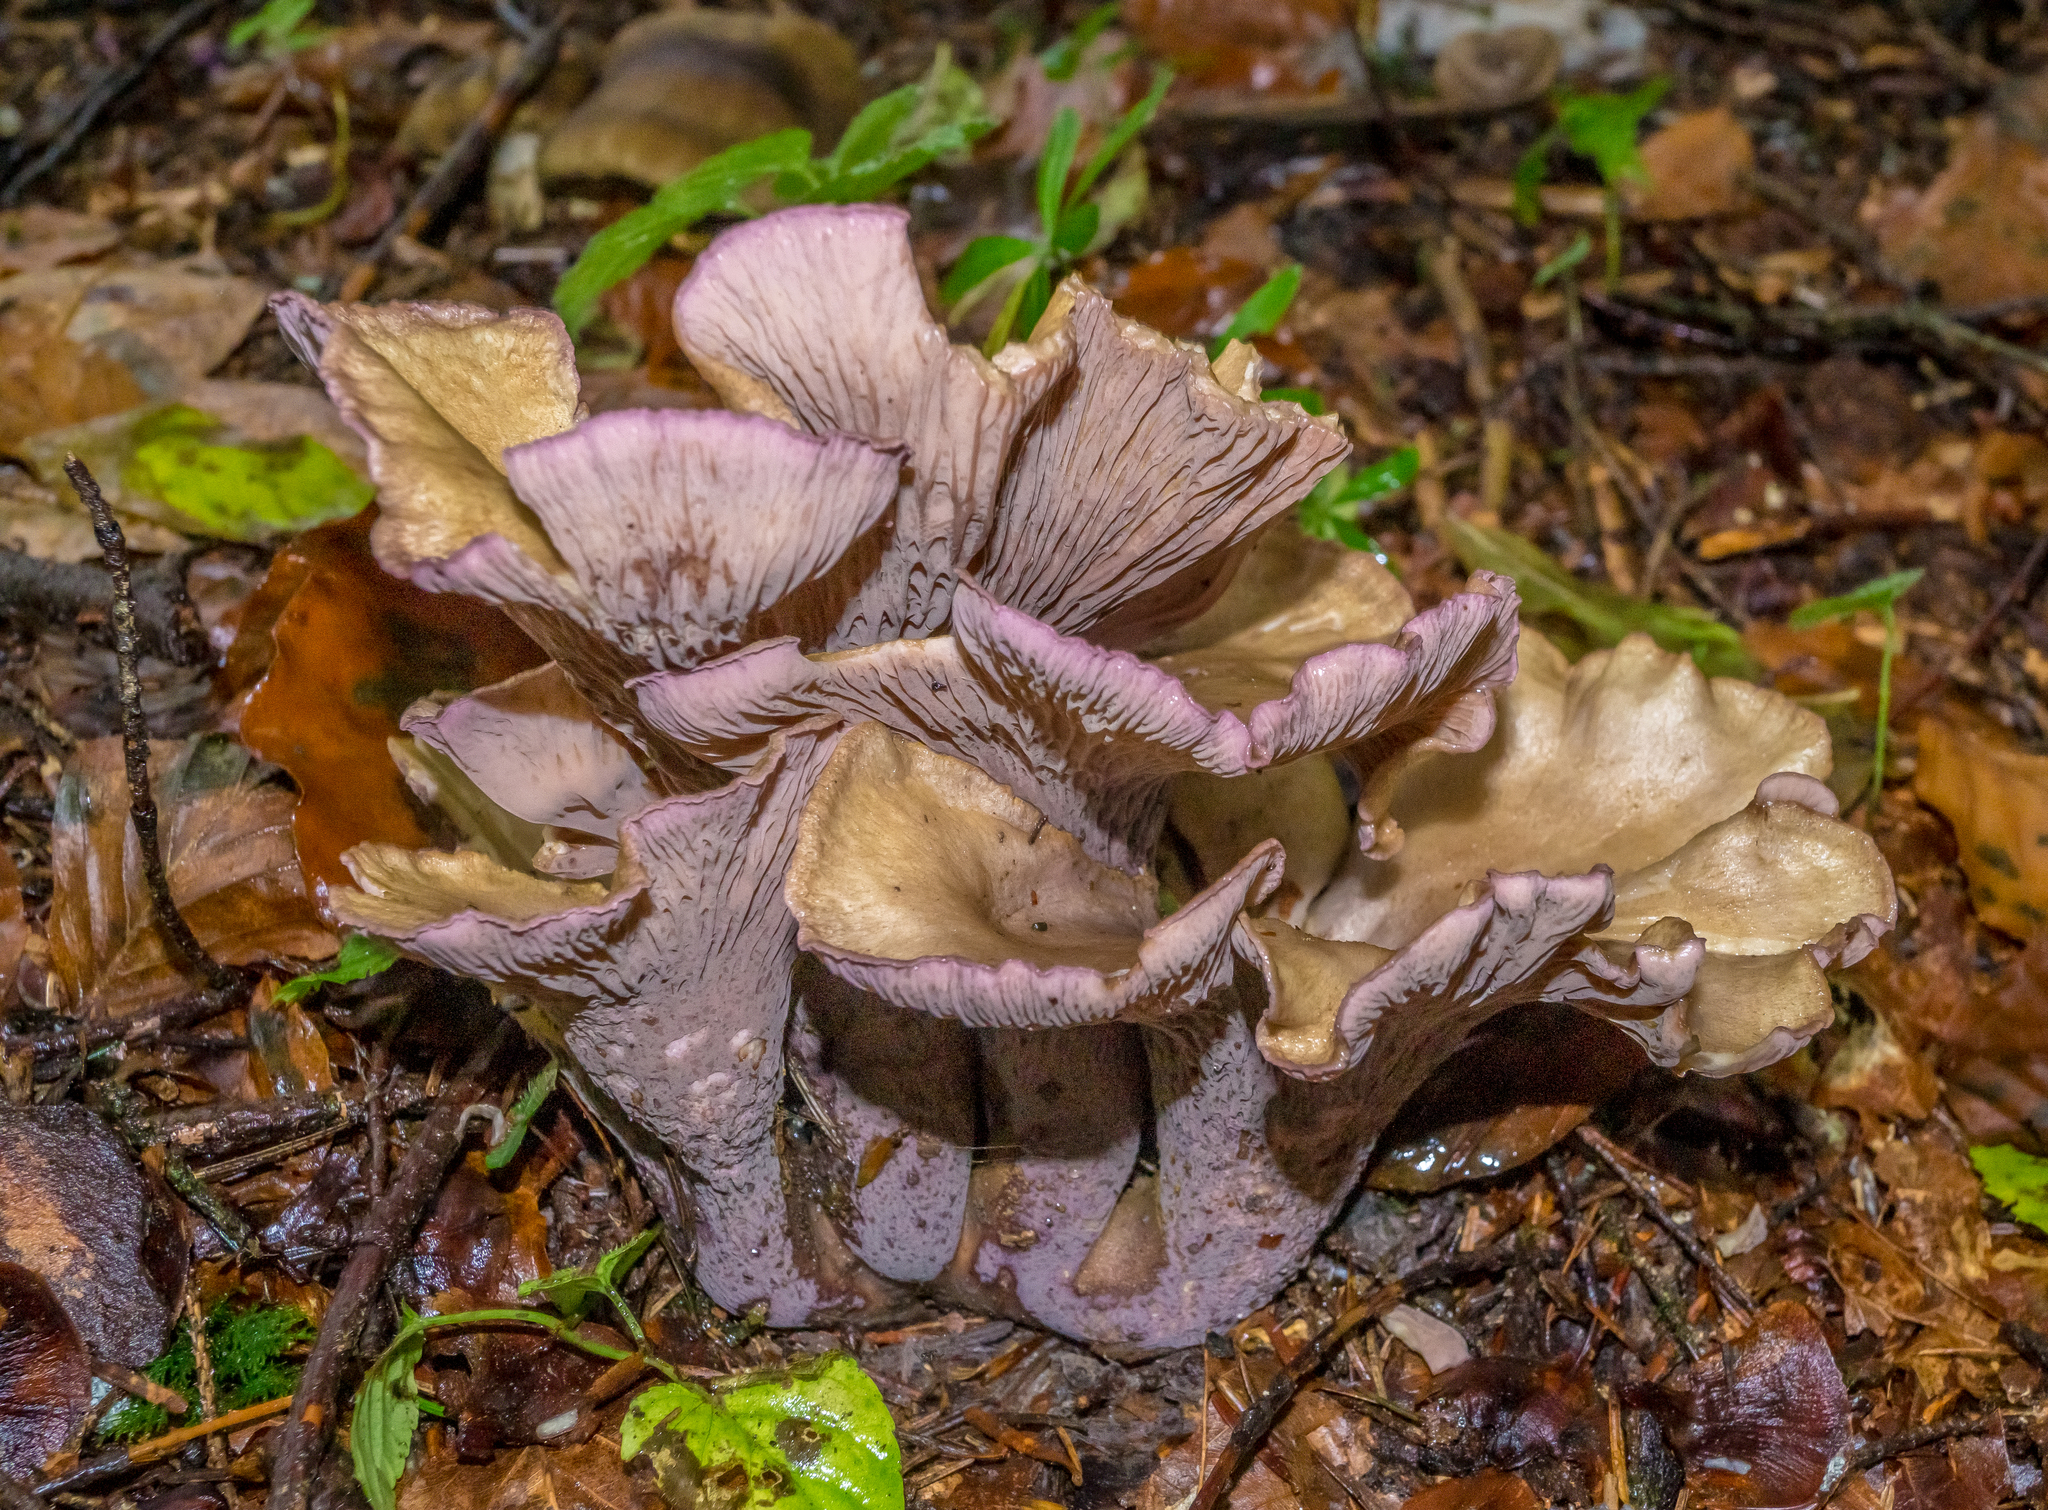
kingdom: Fungi
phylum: Basidiomycota
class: Agaricomycetes
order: Gomphales
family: Gomphaceae
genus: Gomphus
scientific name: Gomphus clavatus
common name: Pig's ear
